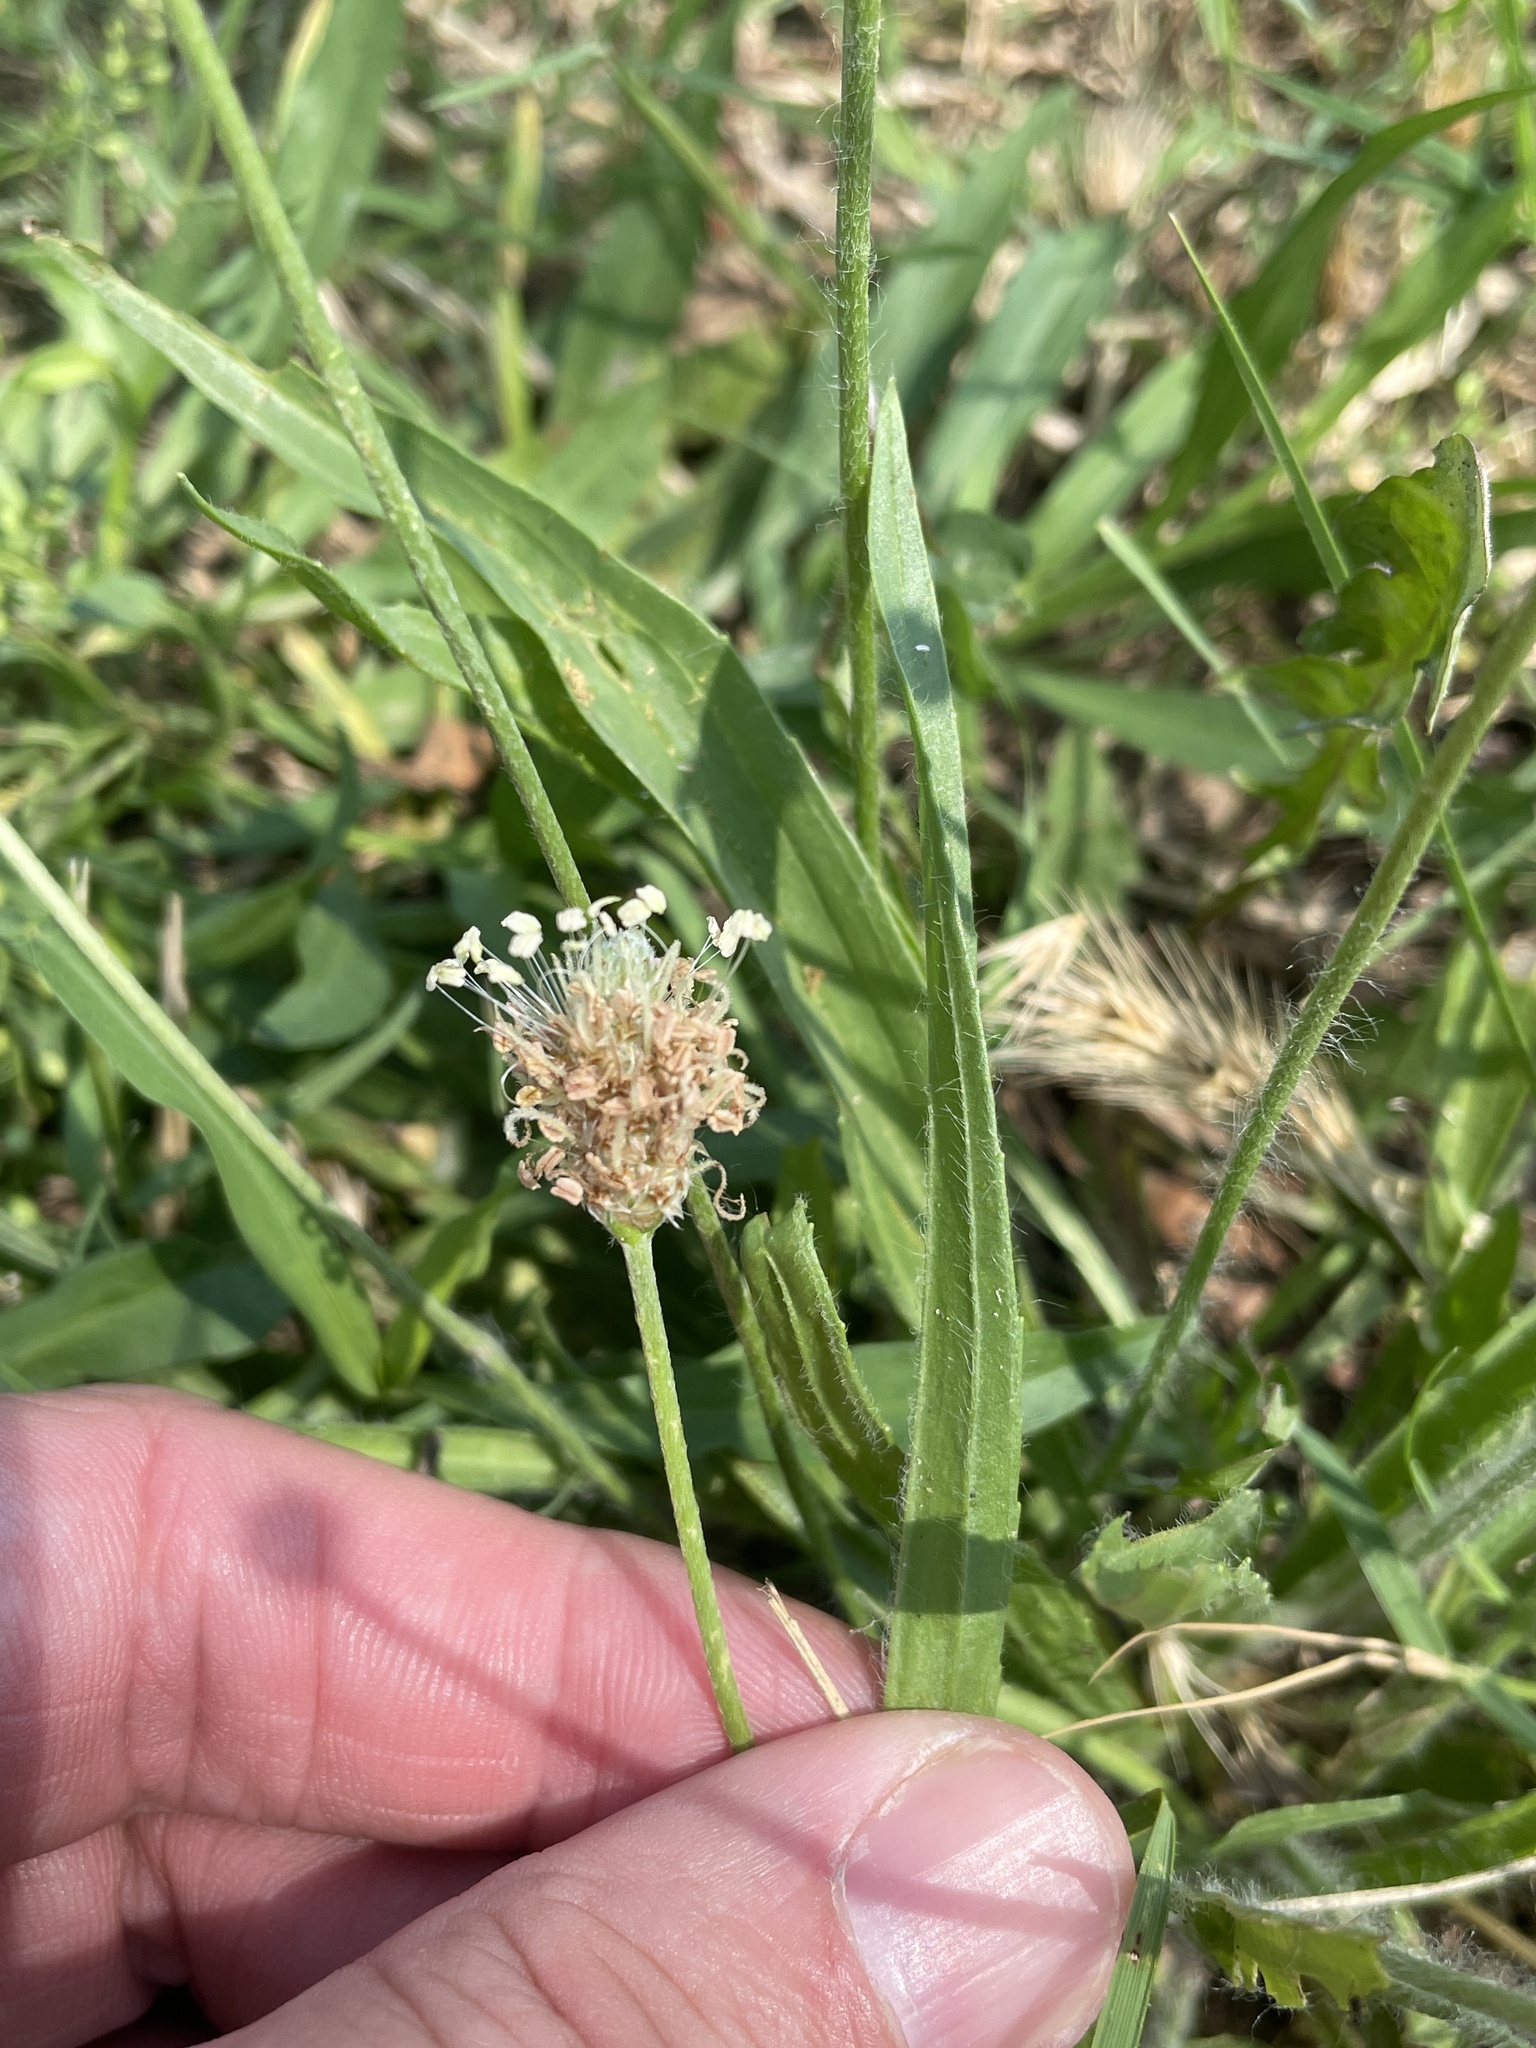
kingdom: Plantae
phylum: Tracheophyta
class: Magnoliopsida
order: Lamiales
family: Plantaginaceae
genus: Plantago
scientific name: Plantago lanceolata
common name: Ribwort plantain
